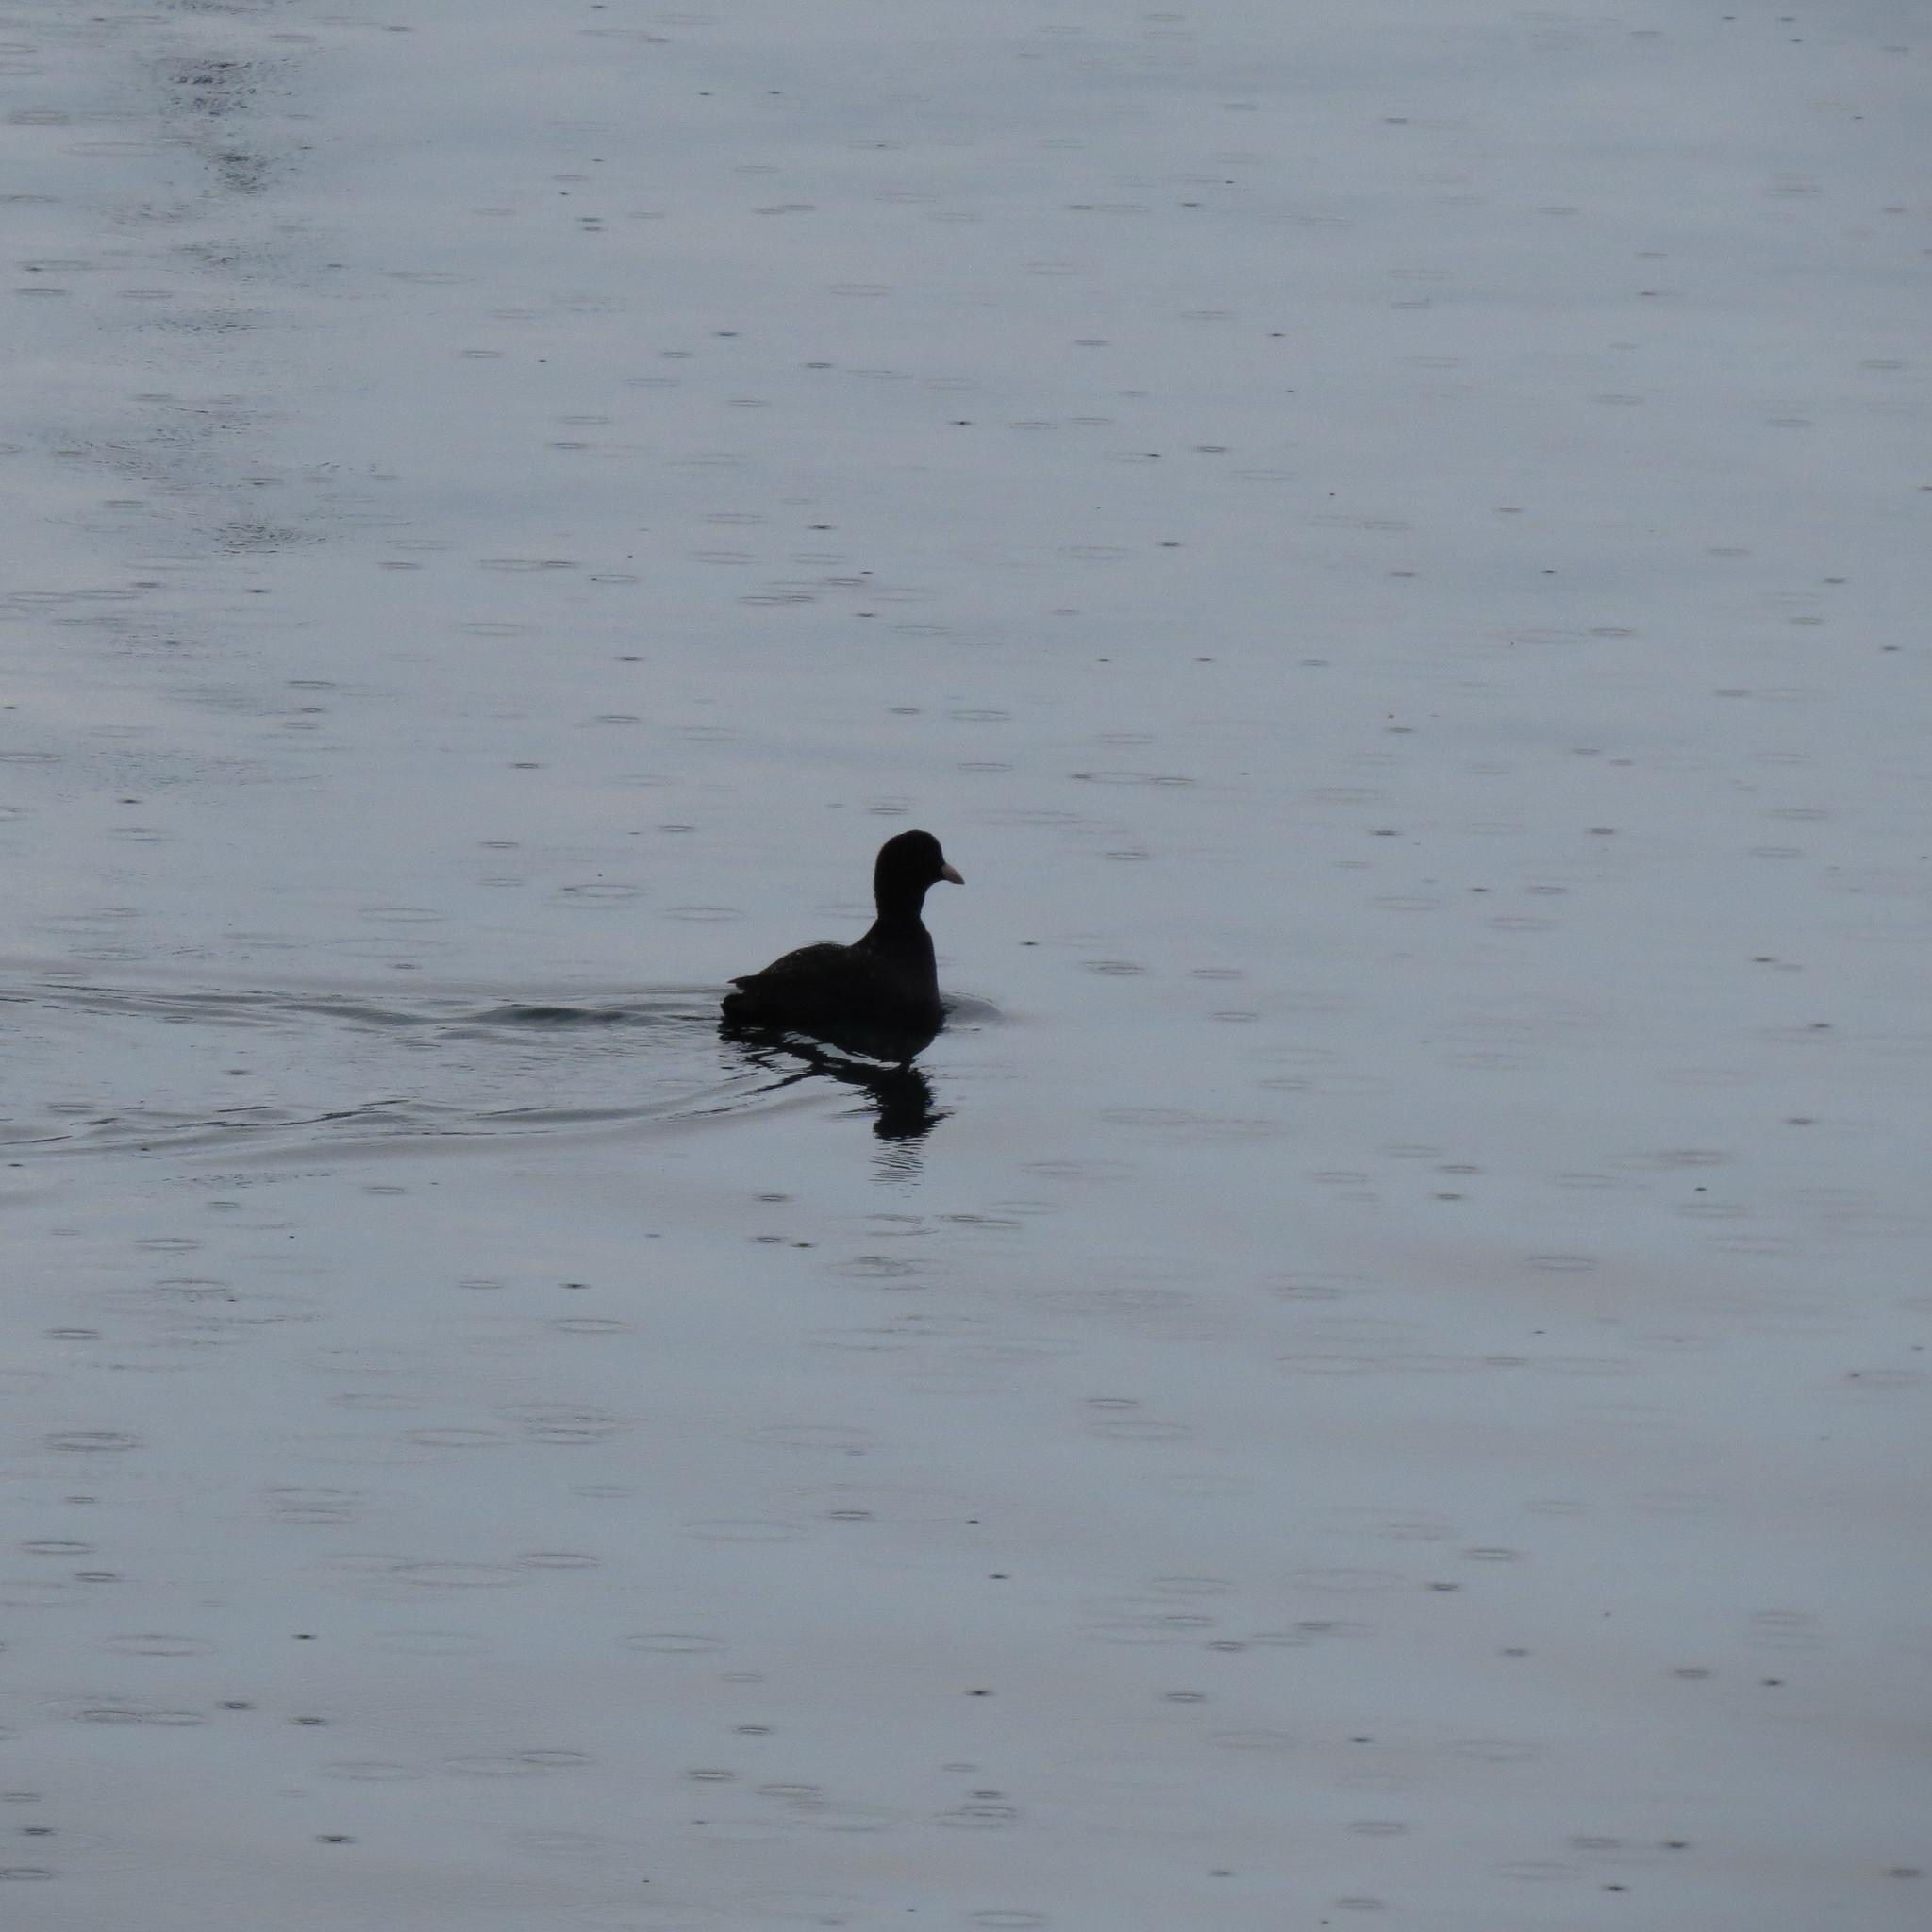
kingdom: Animalia
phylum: Chordata
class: Aves
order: Gruiformes
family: Rallidae
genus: Fulica
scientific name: Fulica atra
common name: Eurasian coot
